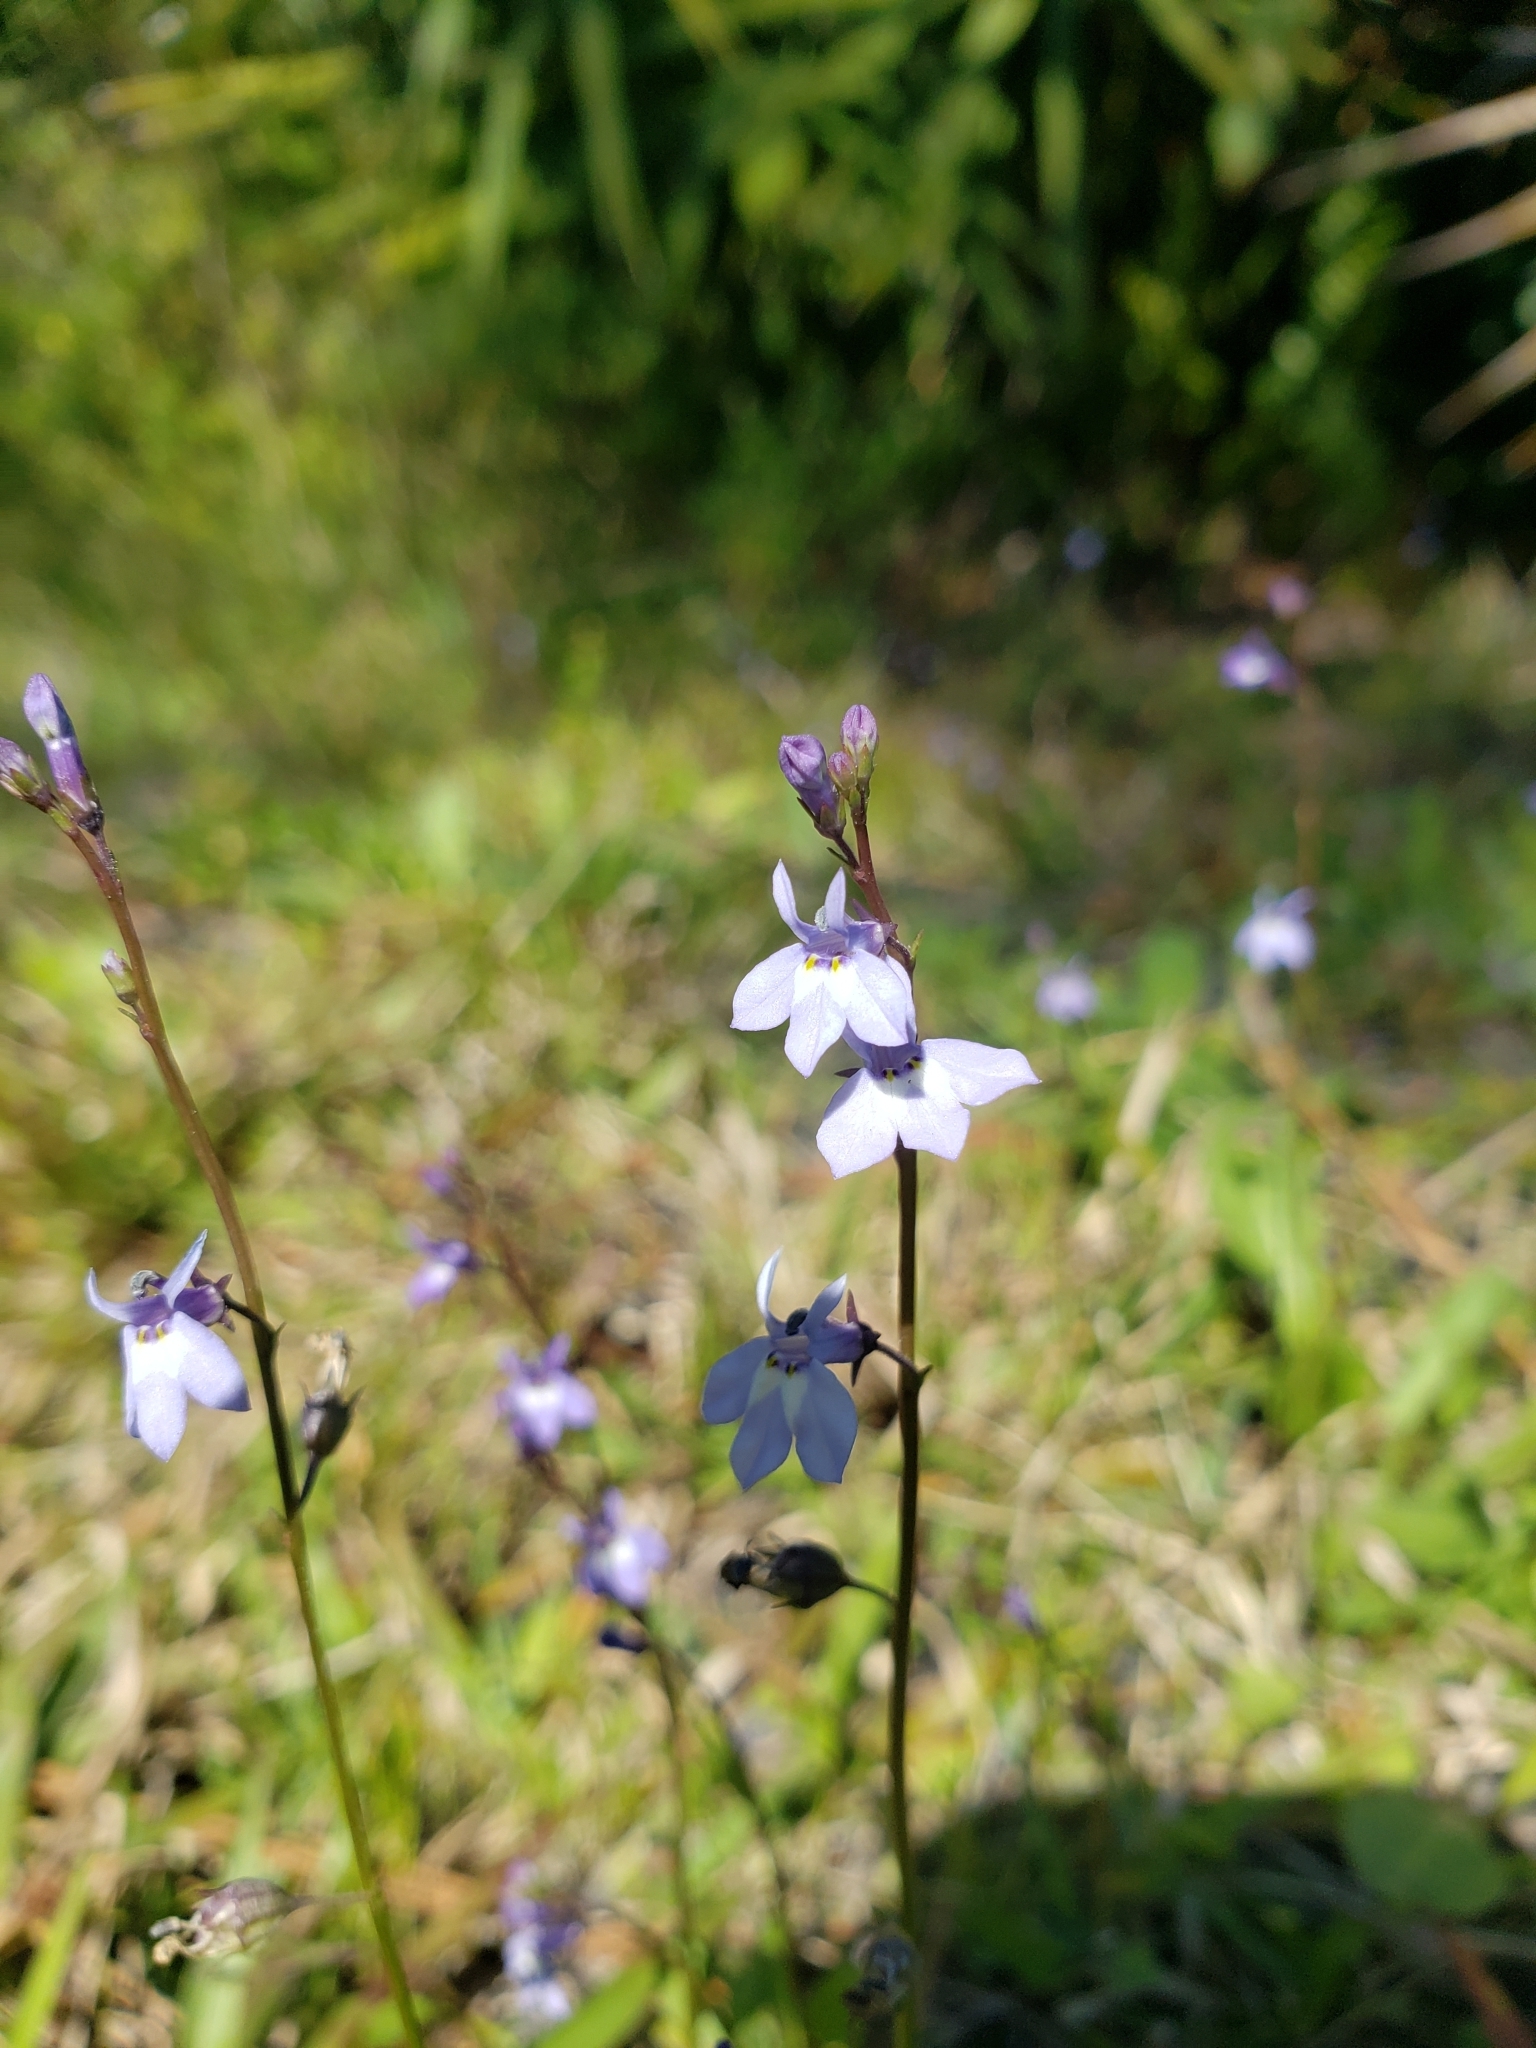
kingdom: Plantae
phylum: Tracheophyta
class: Magnoliopsida
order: Asterales
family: Campanulaceae
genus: Lobelia
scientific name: Lobelia feayana
